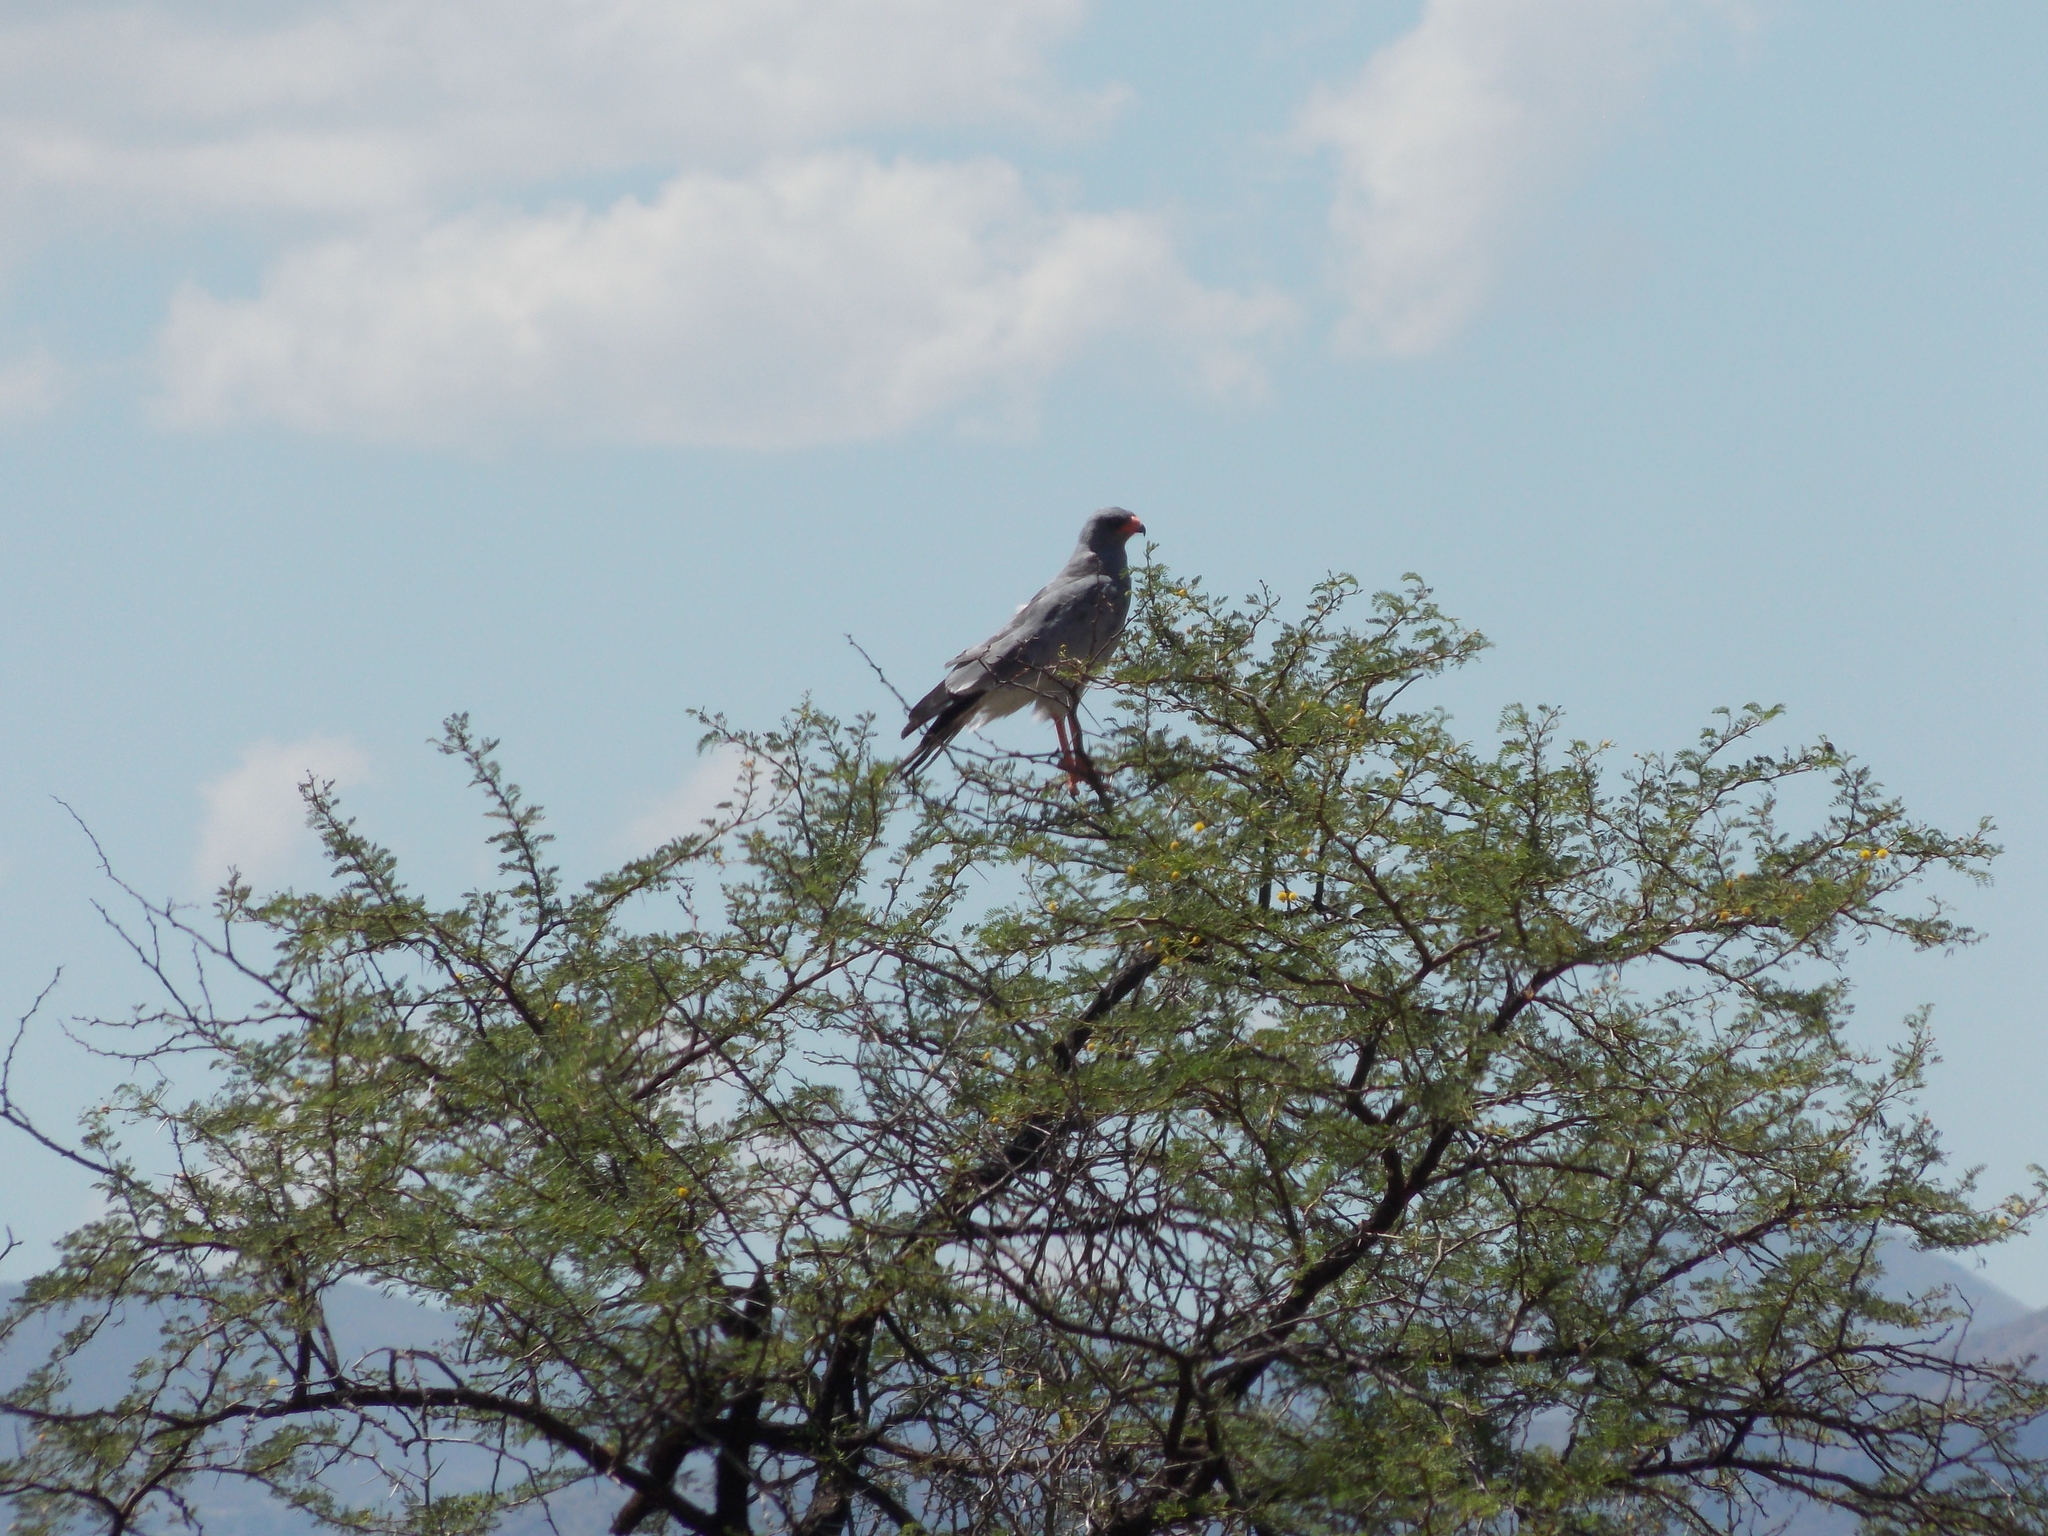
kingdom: Animalia
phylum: Chordata
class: Aves
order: Accipitriformes
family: Accipitridae
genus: Melierax
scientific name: Melierax canorus
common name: Pale chanting-goshawk
